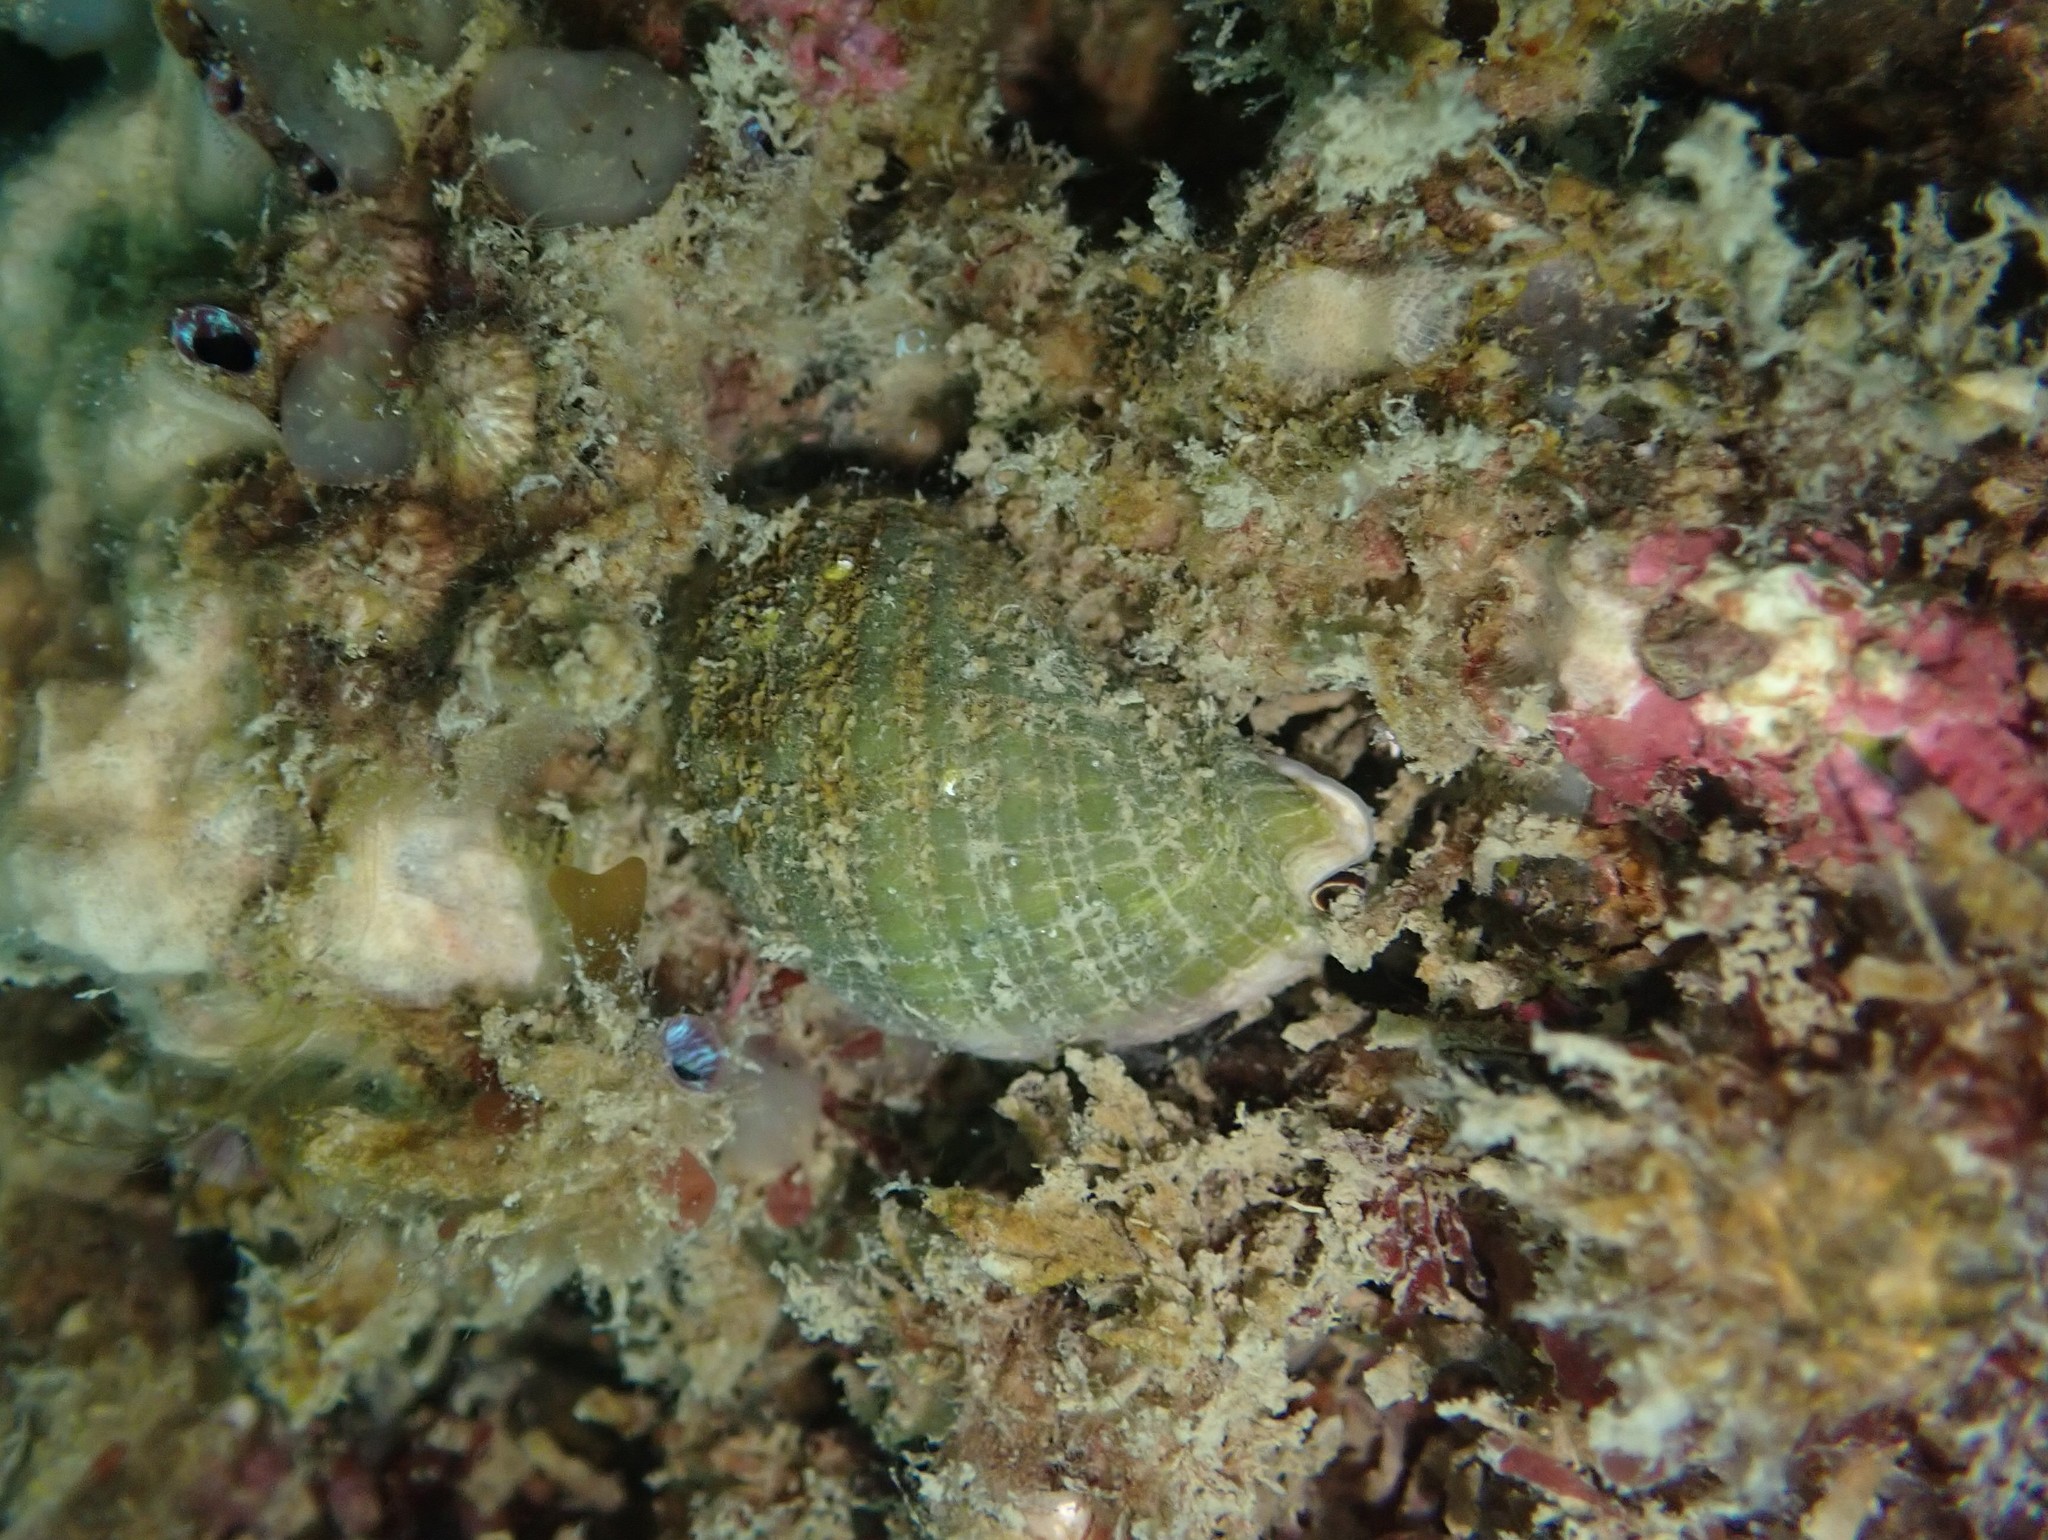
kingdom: Animalia
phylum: Mollusca
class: Gastropoda
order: Neogastropoda
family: Muricidae
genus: Dicathais
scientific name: Dicathais orbita
